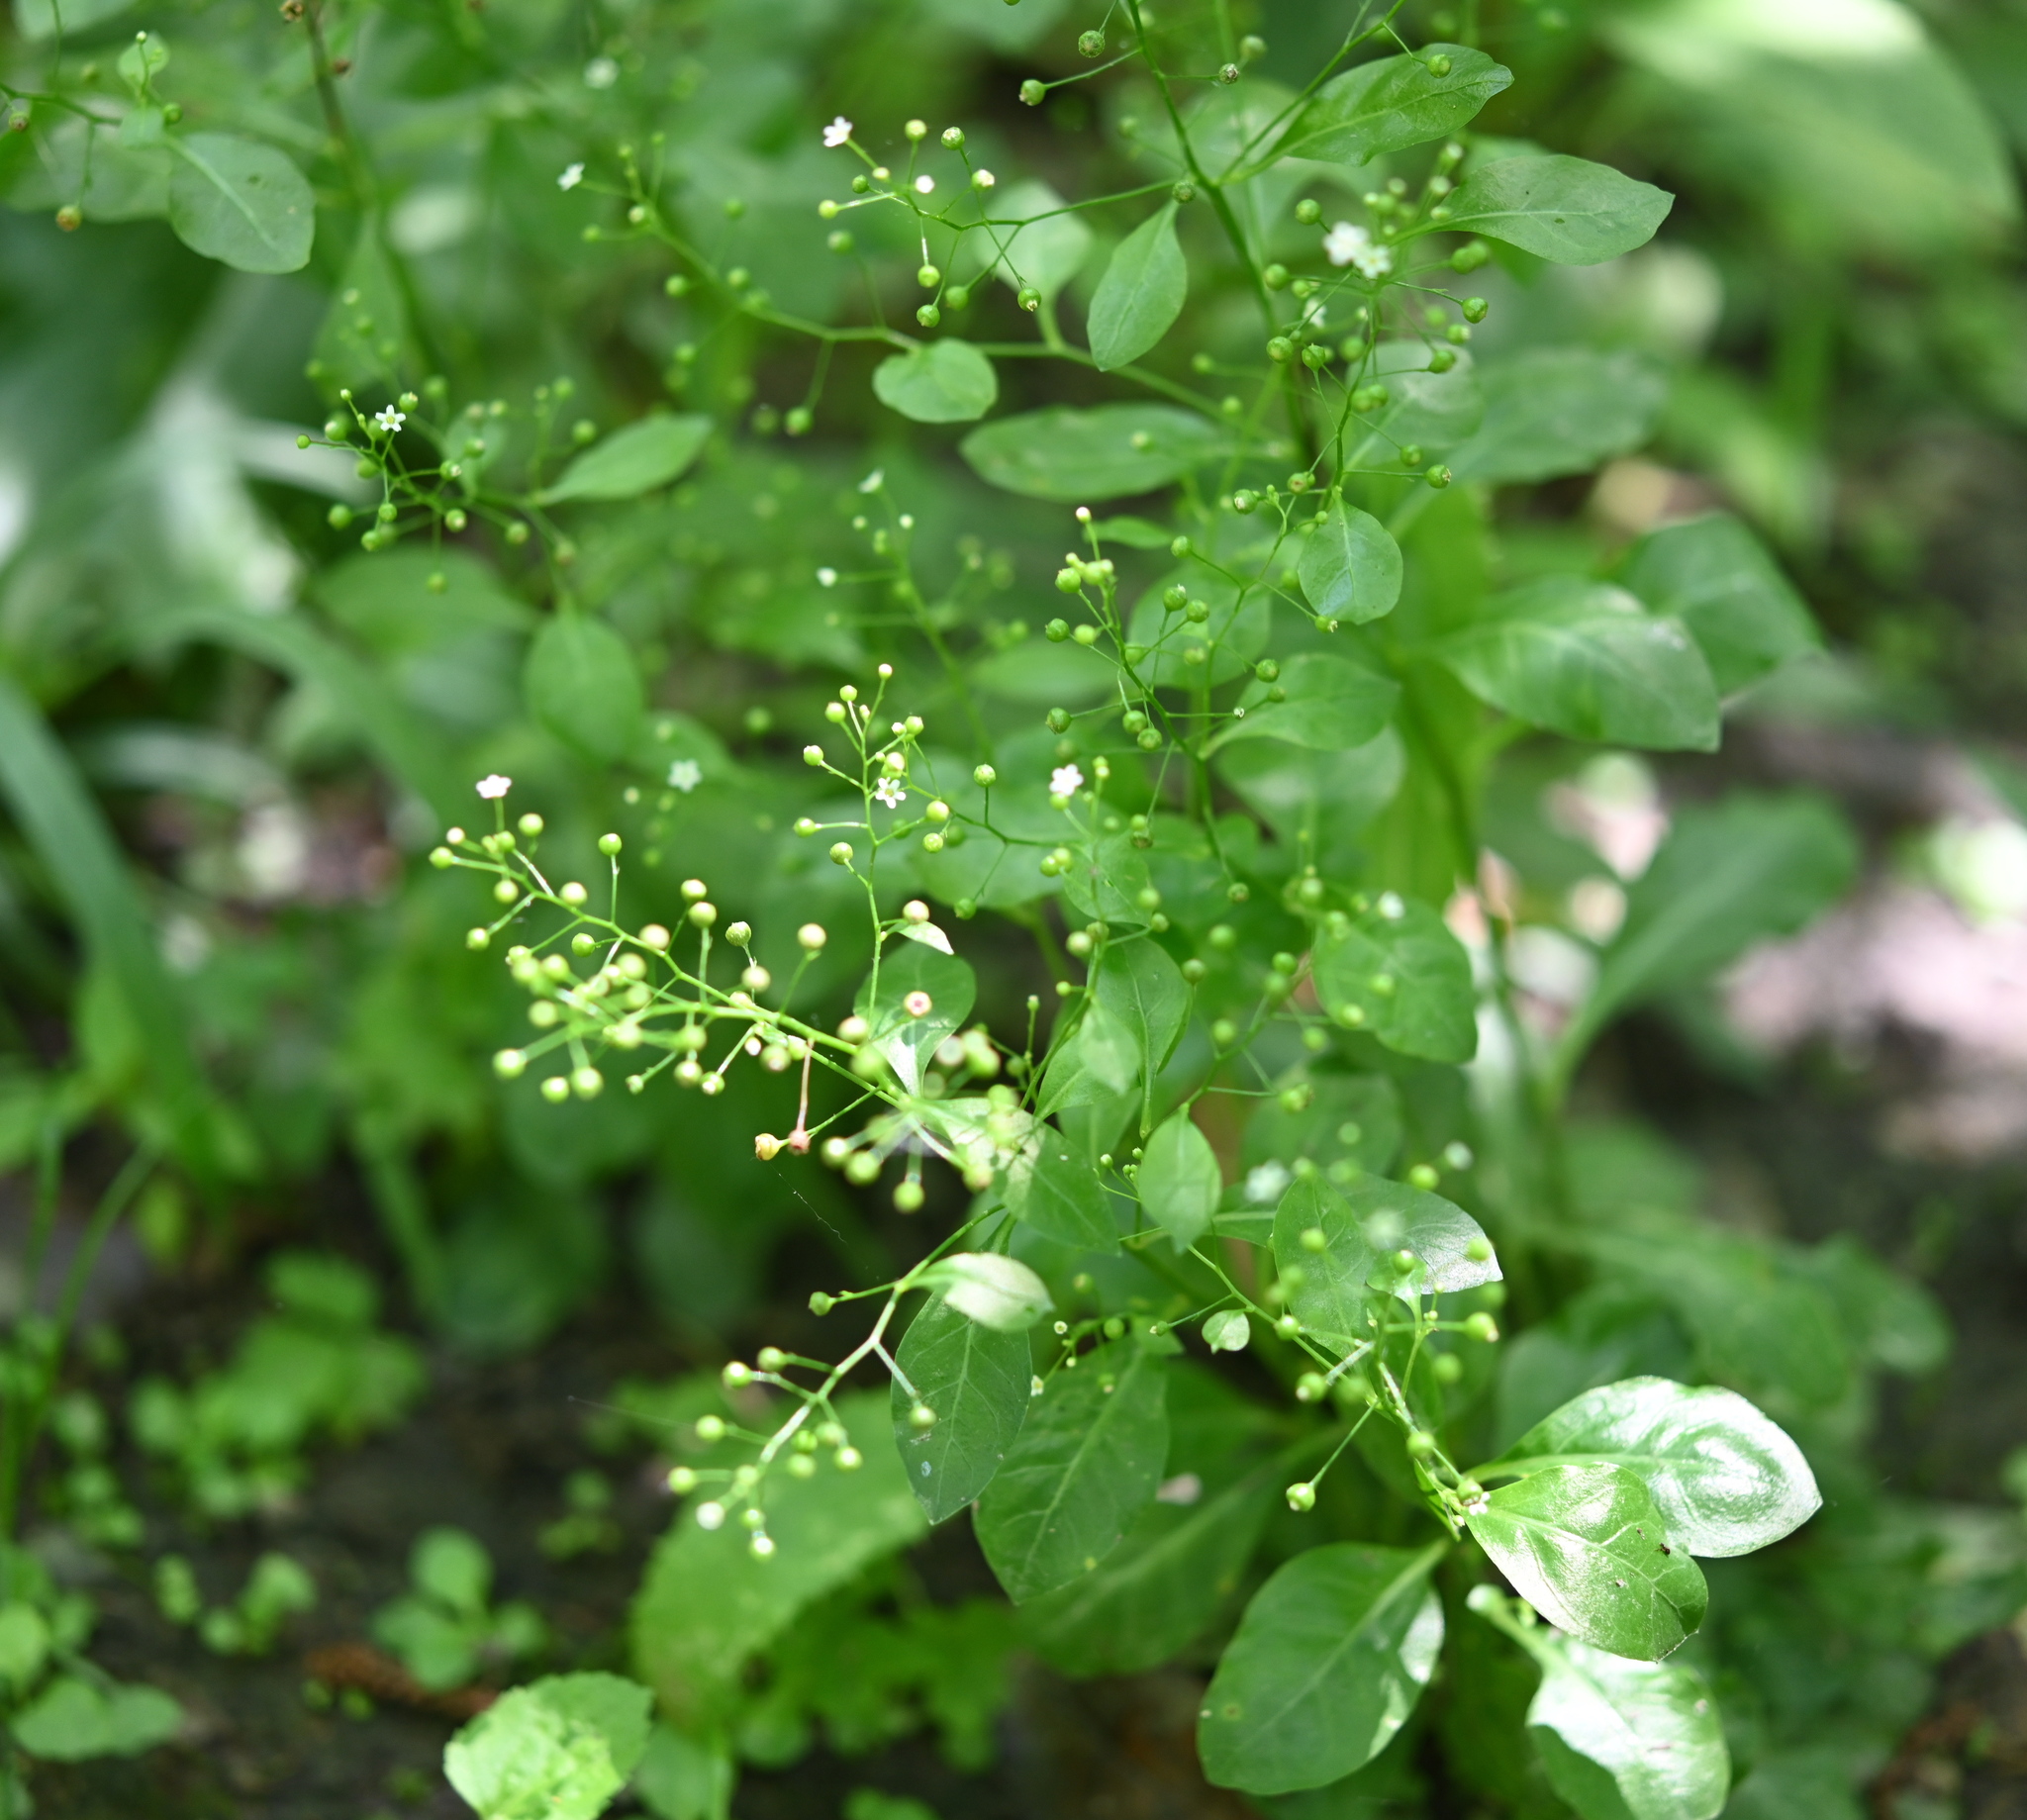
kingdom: Plantae
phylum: Tracheophyta
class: Magnoliopsida
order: Ericales
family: Primulaceae
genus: Samolus
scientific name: Samolus parviflorus
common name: False water pimpernel
